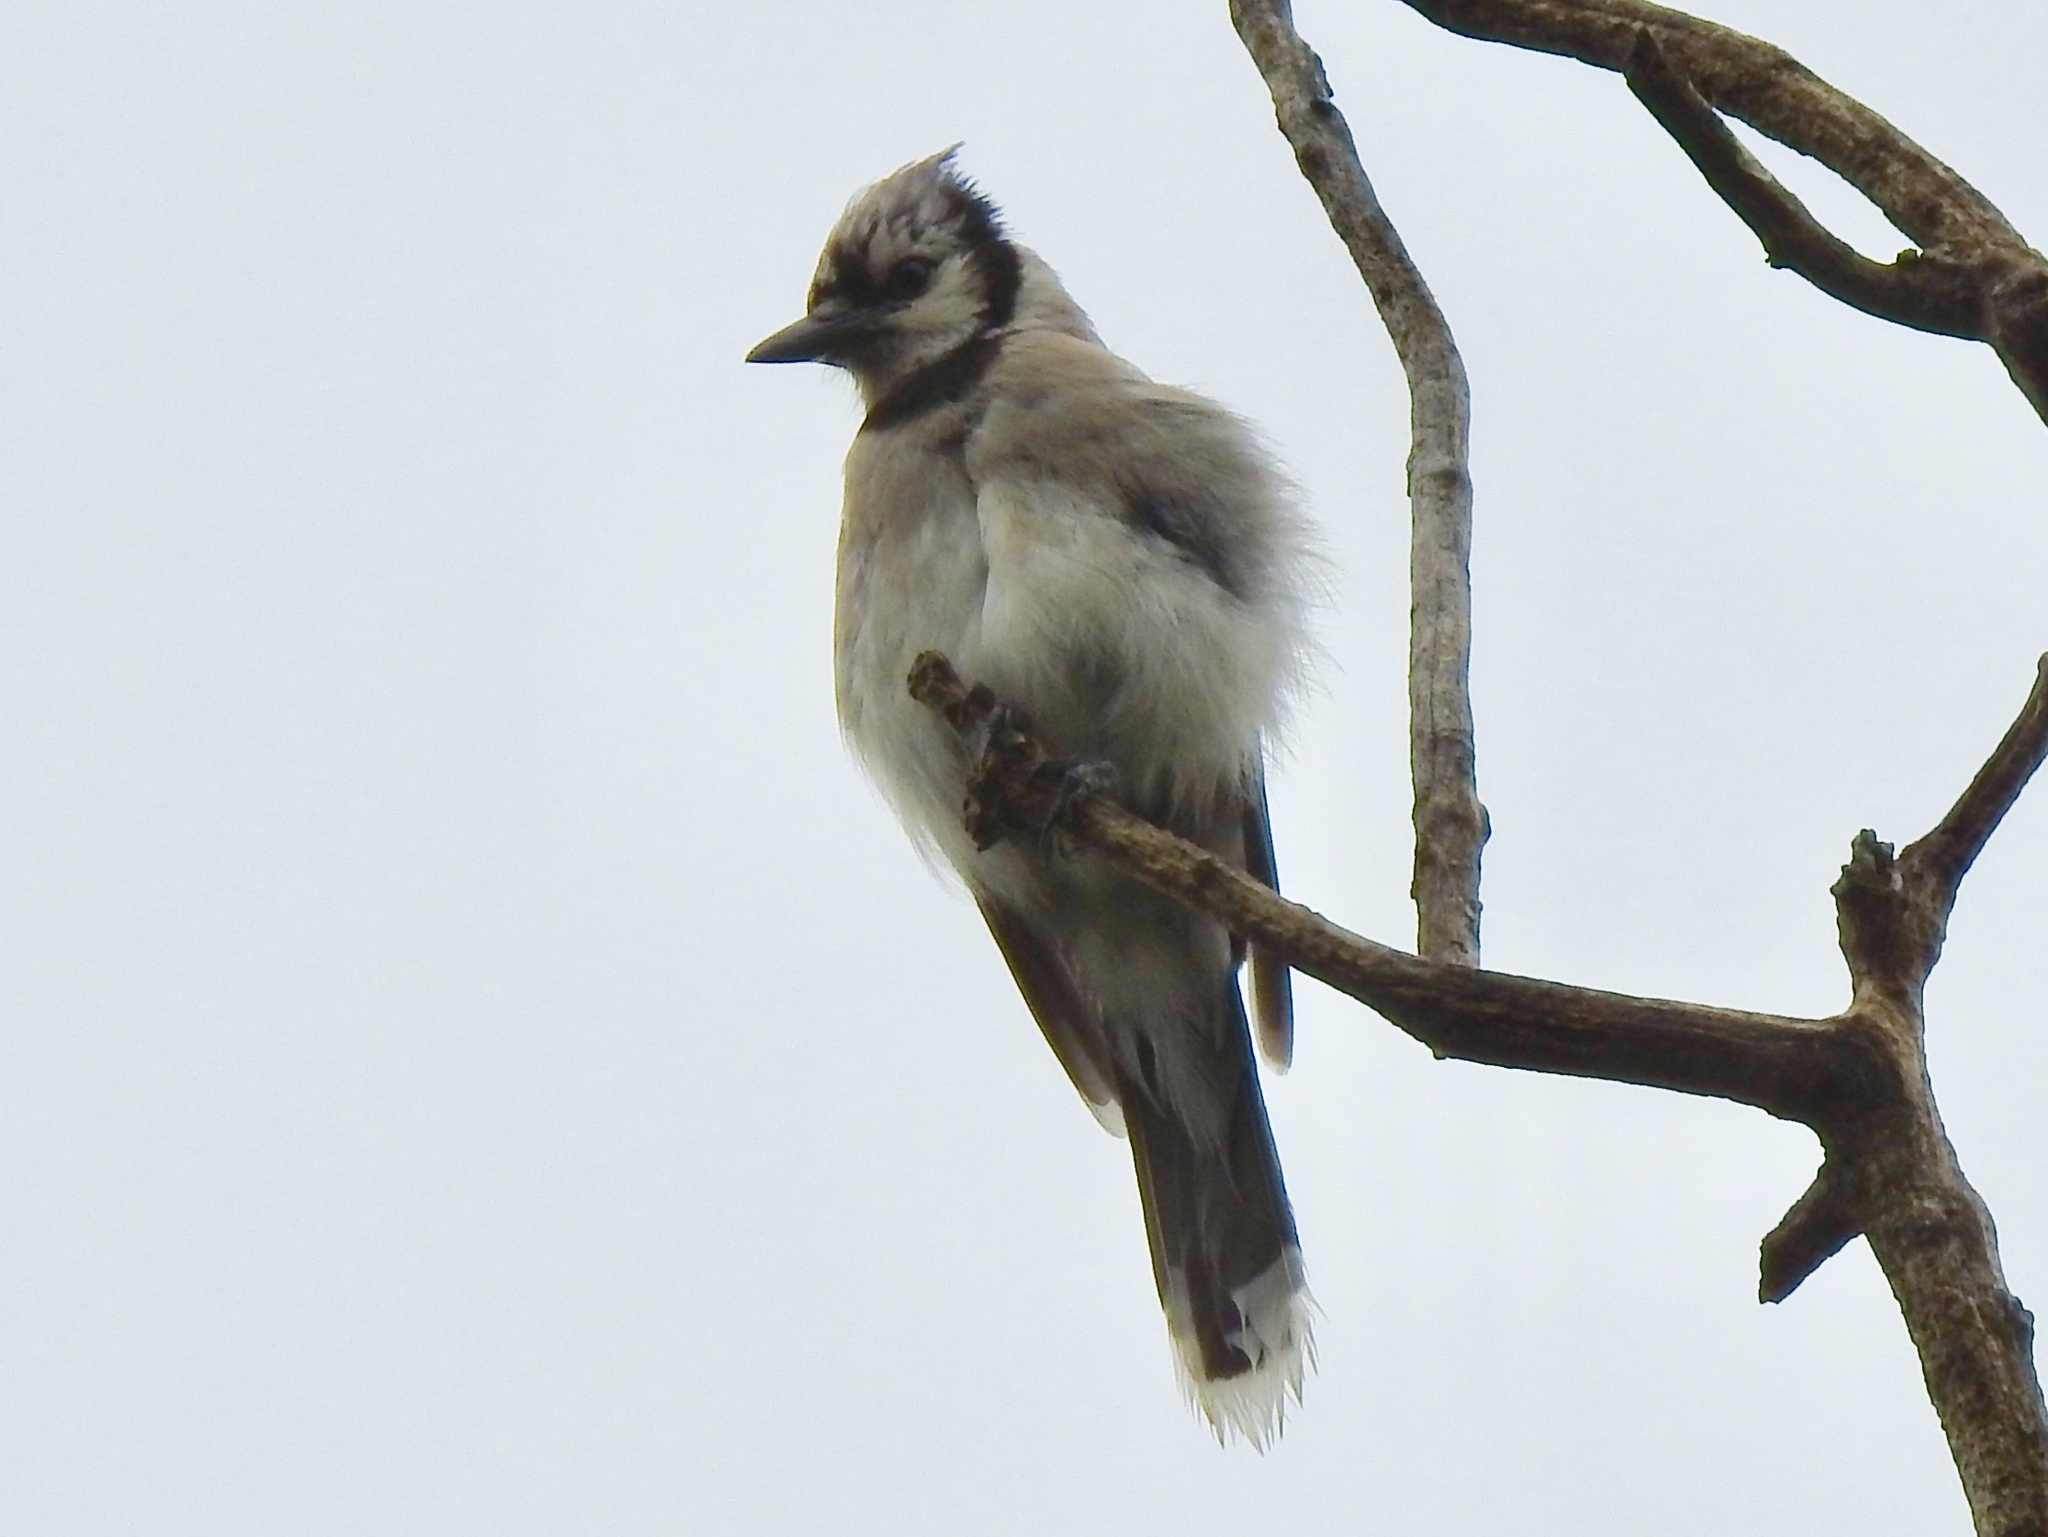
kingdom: Animalia
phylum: Chordata
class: Aves
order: Passeriformes
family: Corvidae
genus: Cyanocitta
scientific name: Cyanocitta cristata
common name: Blue jay
